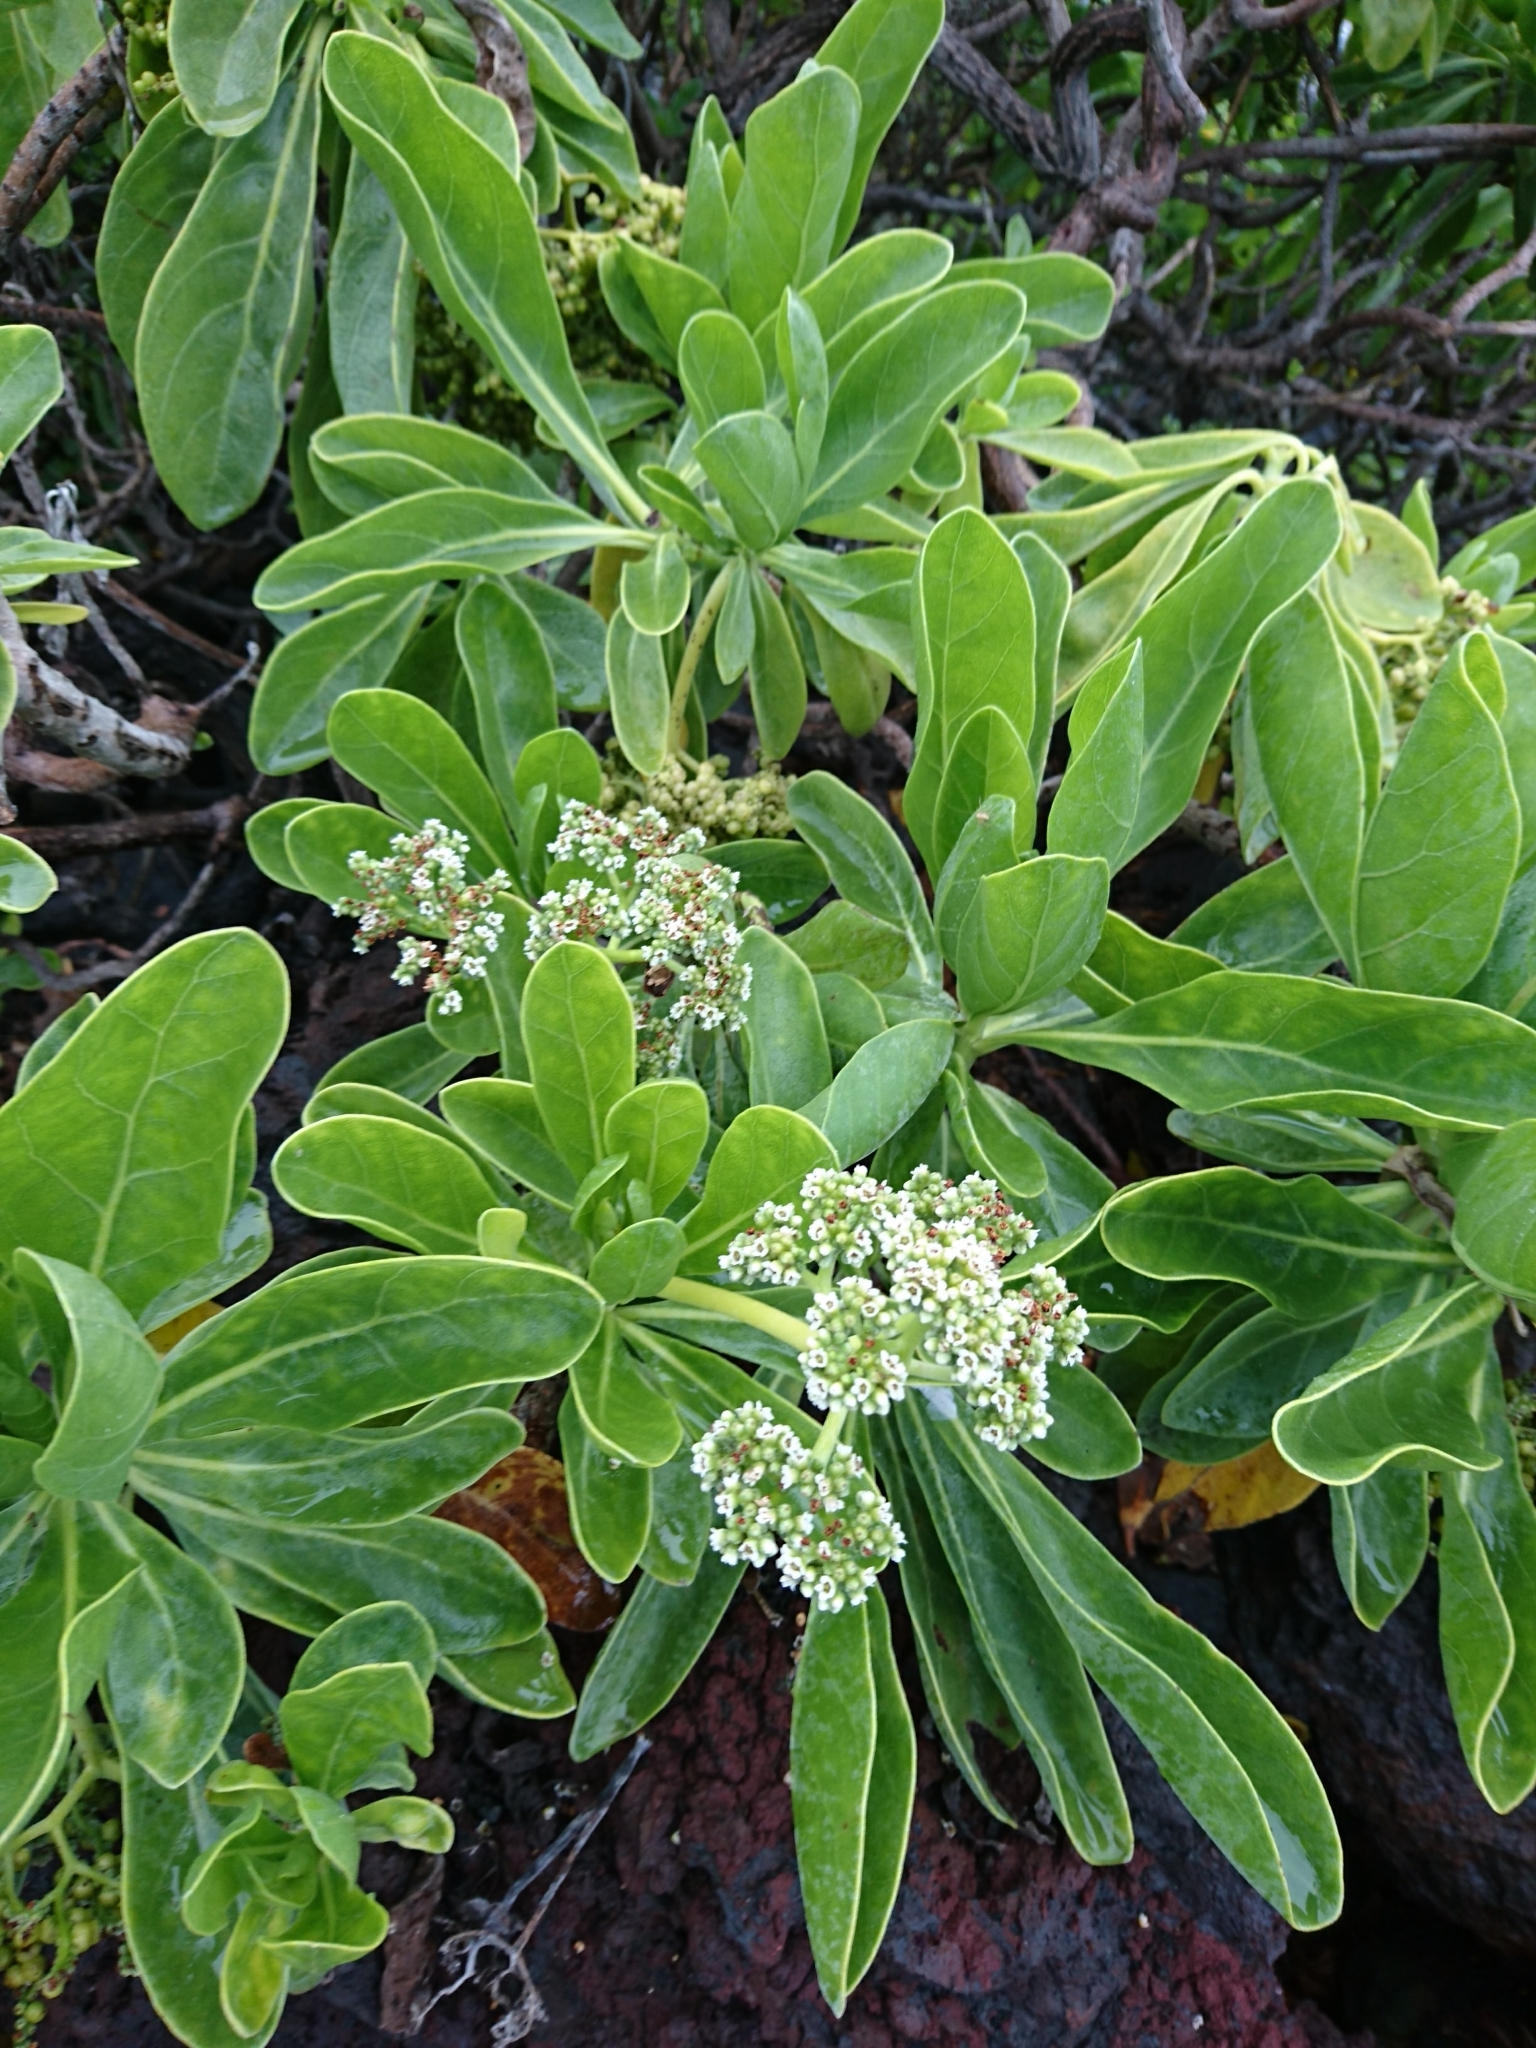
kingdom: Plantae
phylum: Tracheophyta
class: Magnoliopsida
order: Boraginales
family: Heliotropiaceae
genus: Heliotropium
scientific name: Heliotropium velutinum
